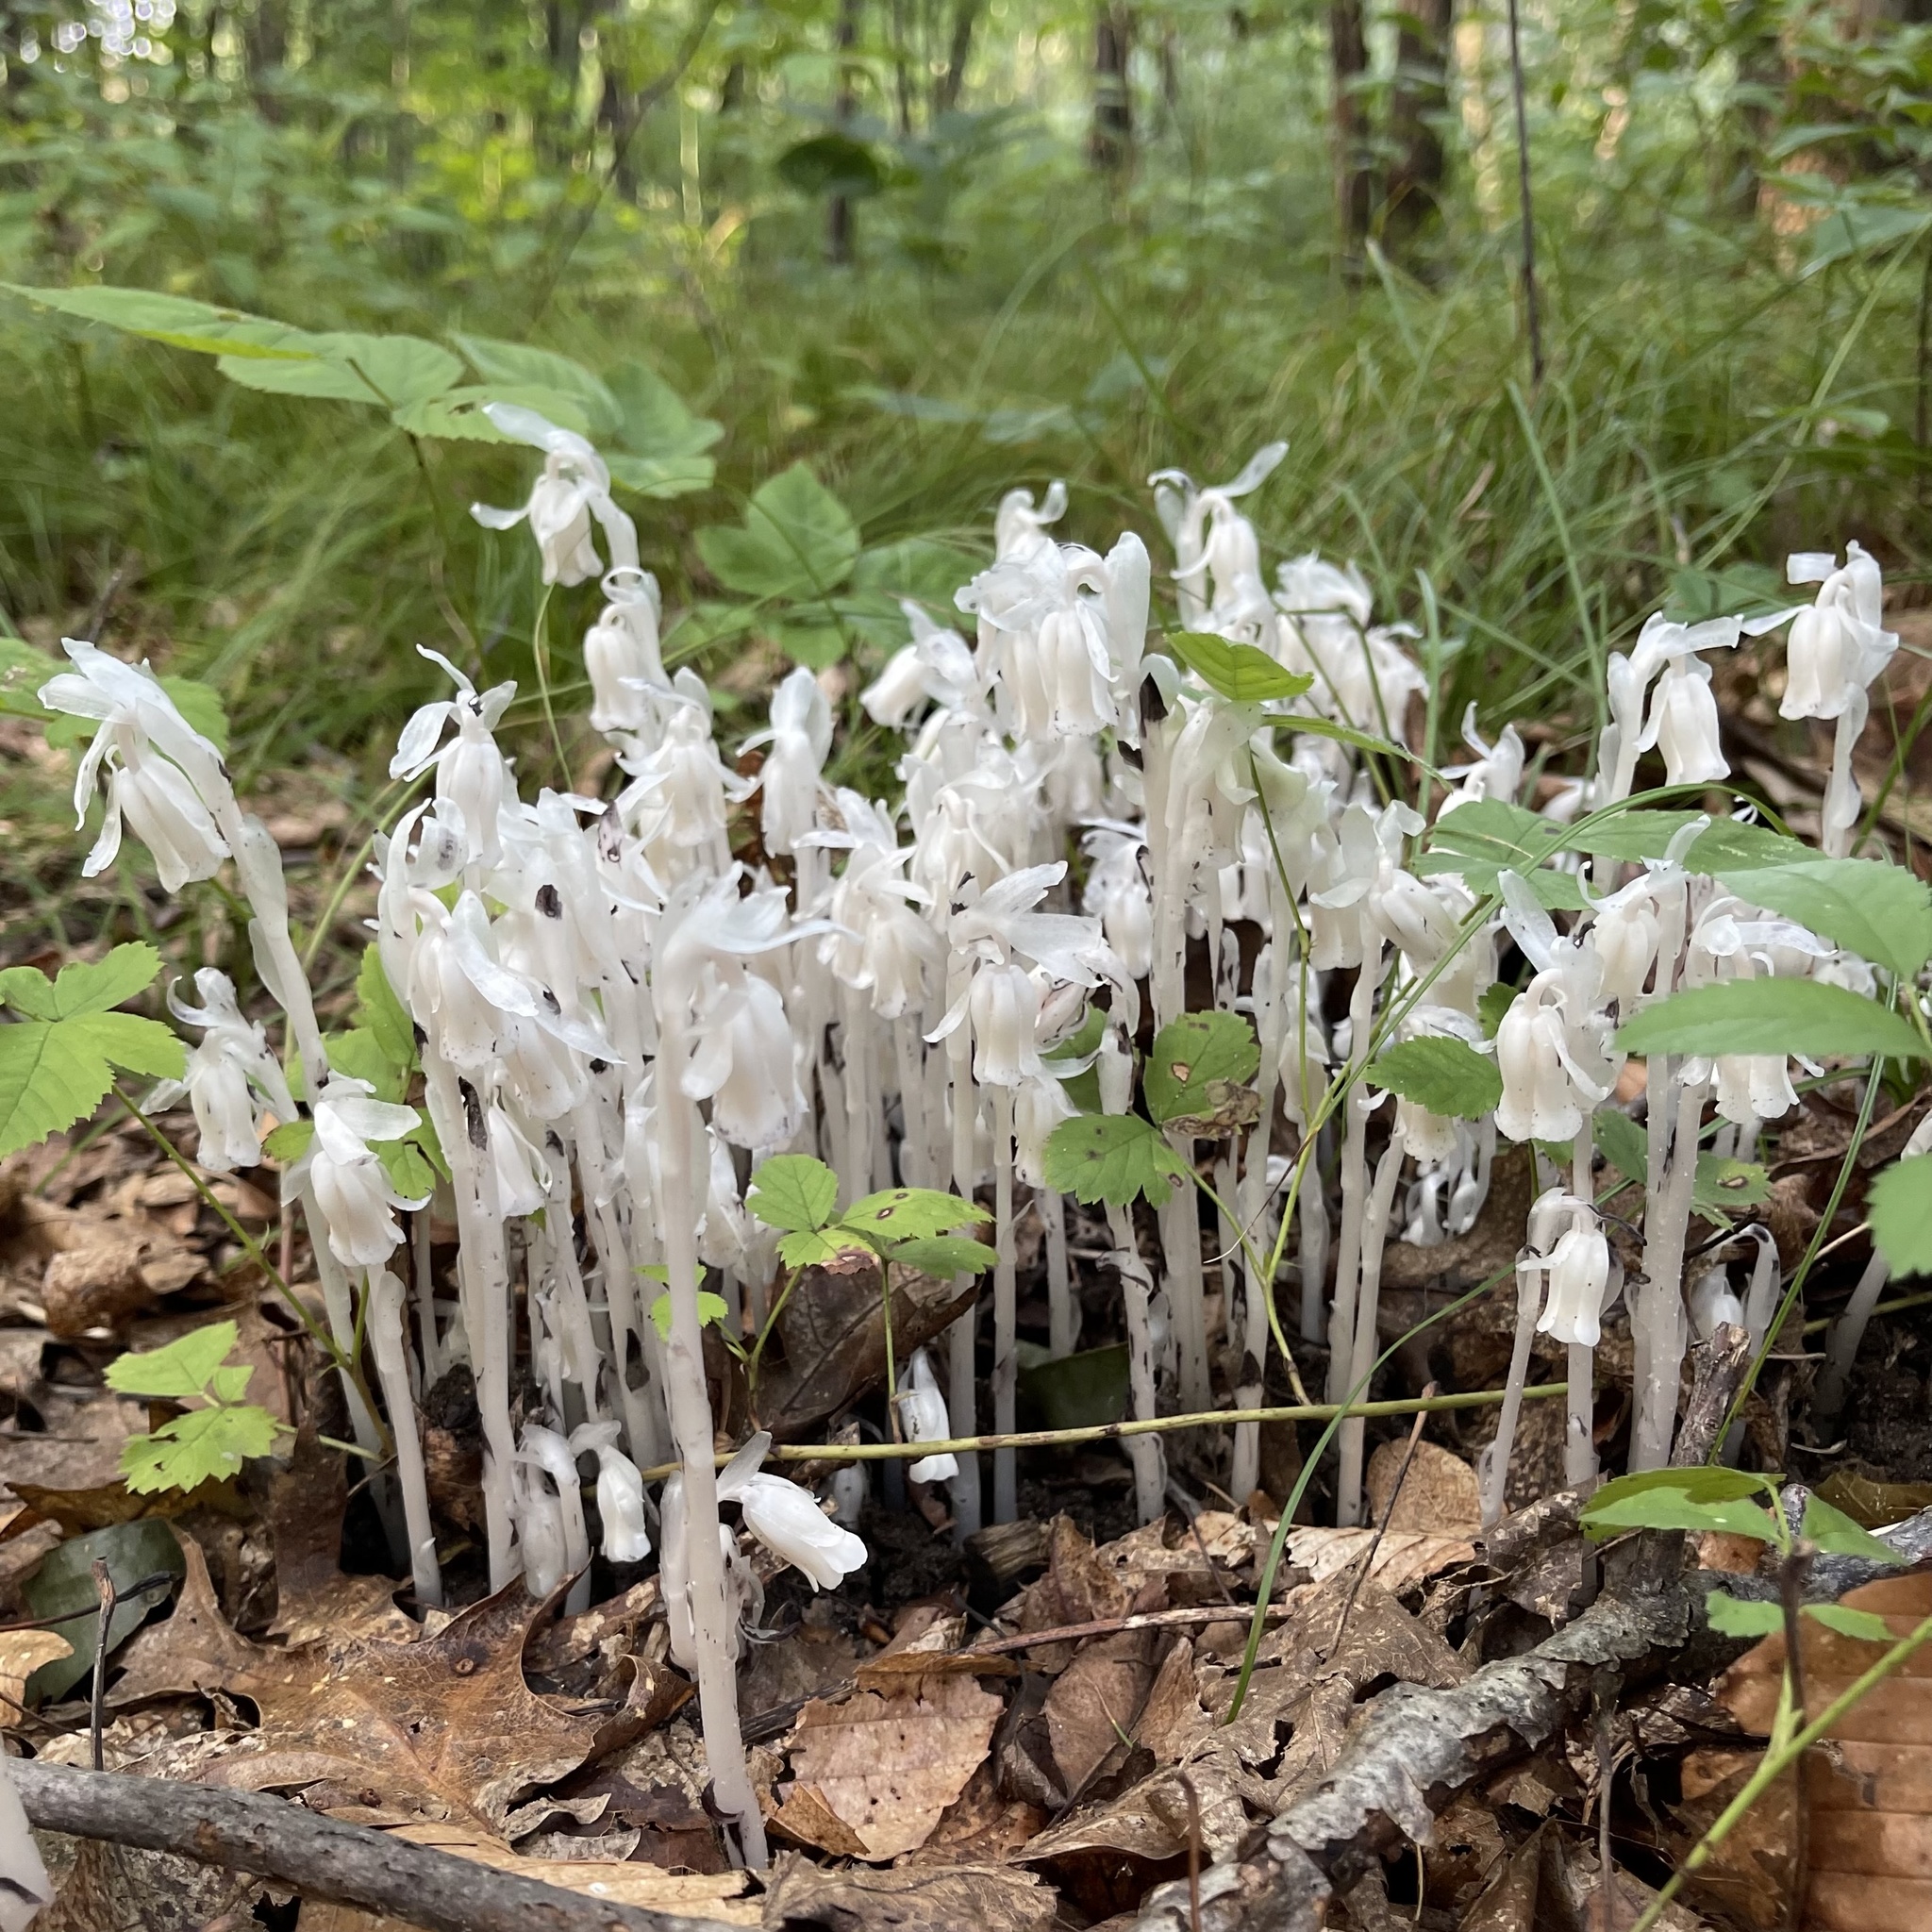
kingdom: Plantae
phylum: Tracheophyta
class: Magnoliopsida
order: Ericales
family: Ericaceae
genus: Monotropa
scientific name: Monotropa uniflora
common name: Convulsion root
